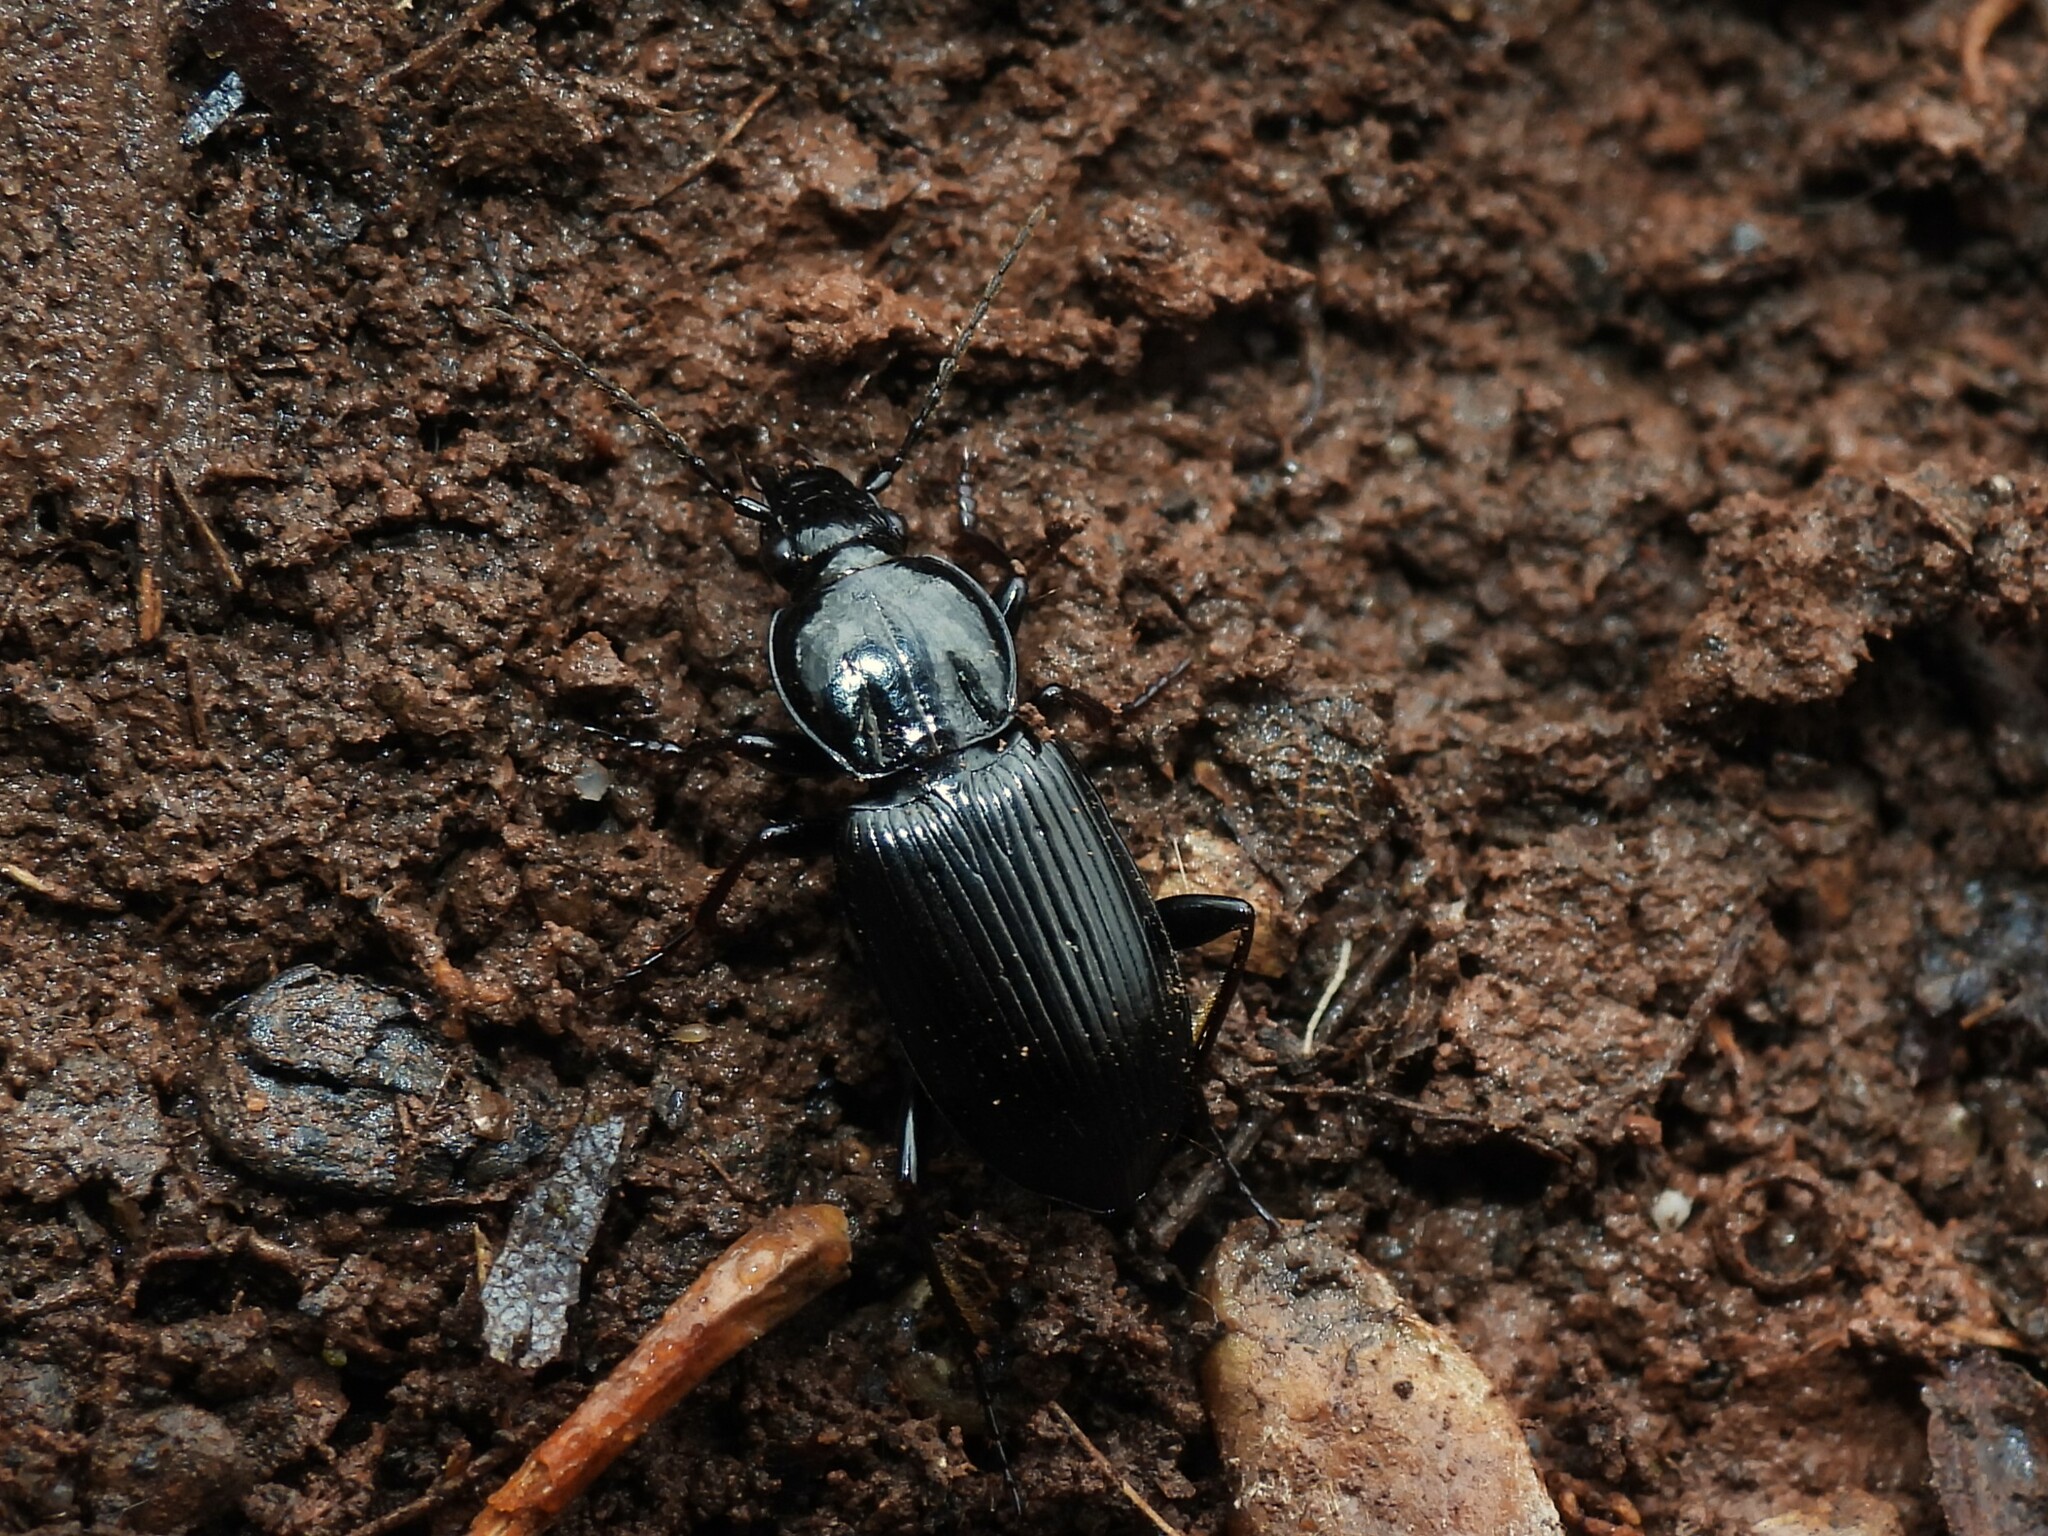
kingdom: Animalia
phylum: Arthropoda
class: Insecta
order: Coleoptera
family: Carabidae
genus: Pterostichus
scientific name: Pterostichus mutus
